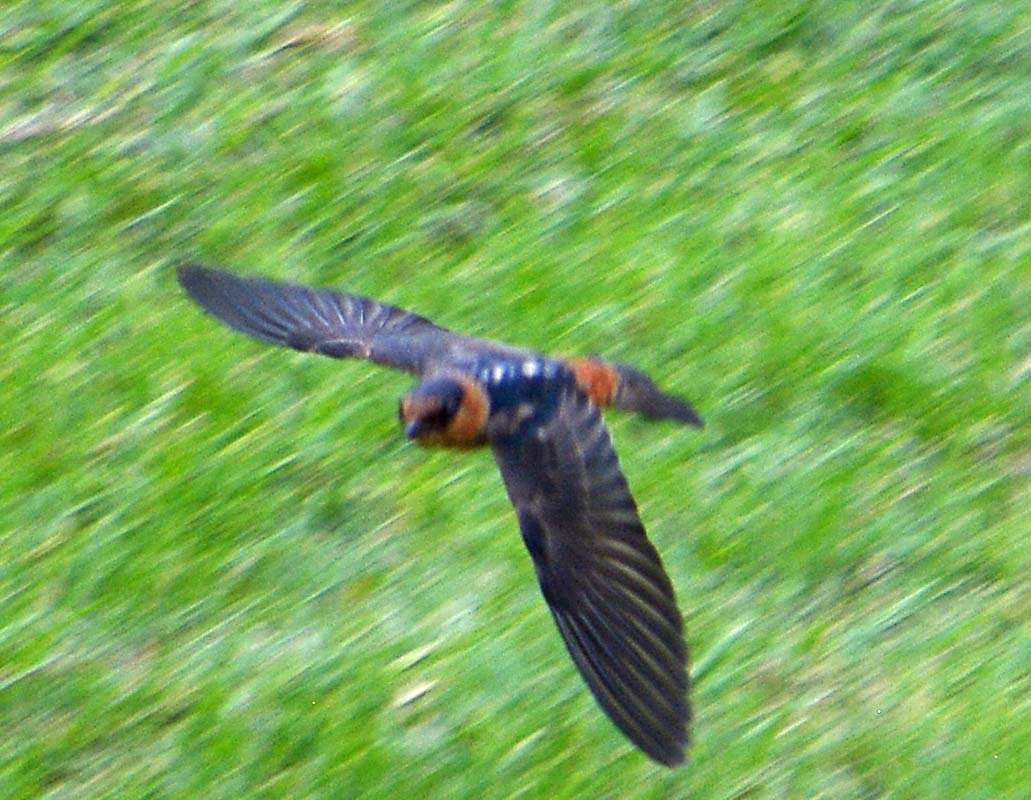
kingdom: Animalia
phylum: Chordata
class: Aves
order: Passeriformes
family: Hirundinidae
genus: Petrochelidon
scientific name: Petrochelidon fulva
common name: Cave swallow
